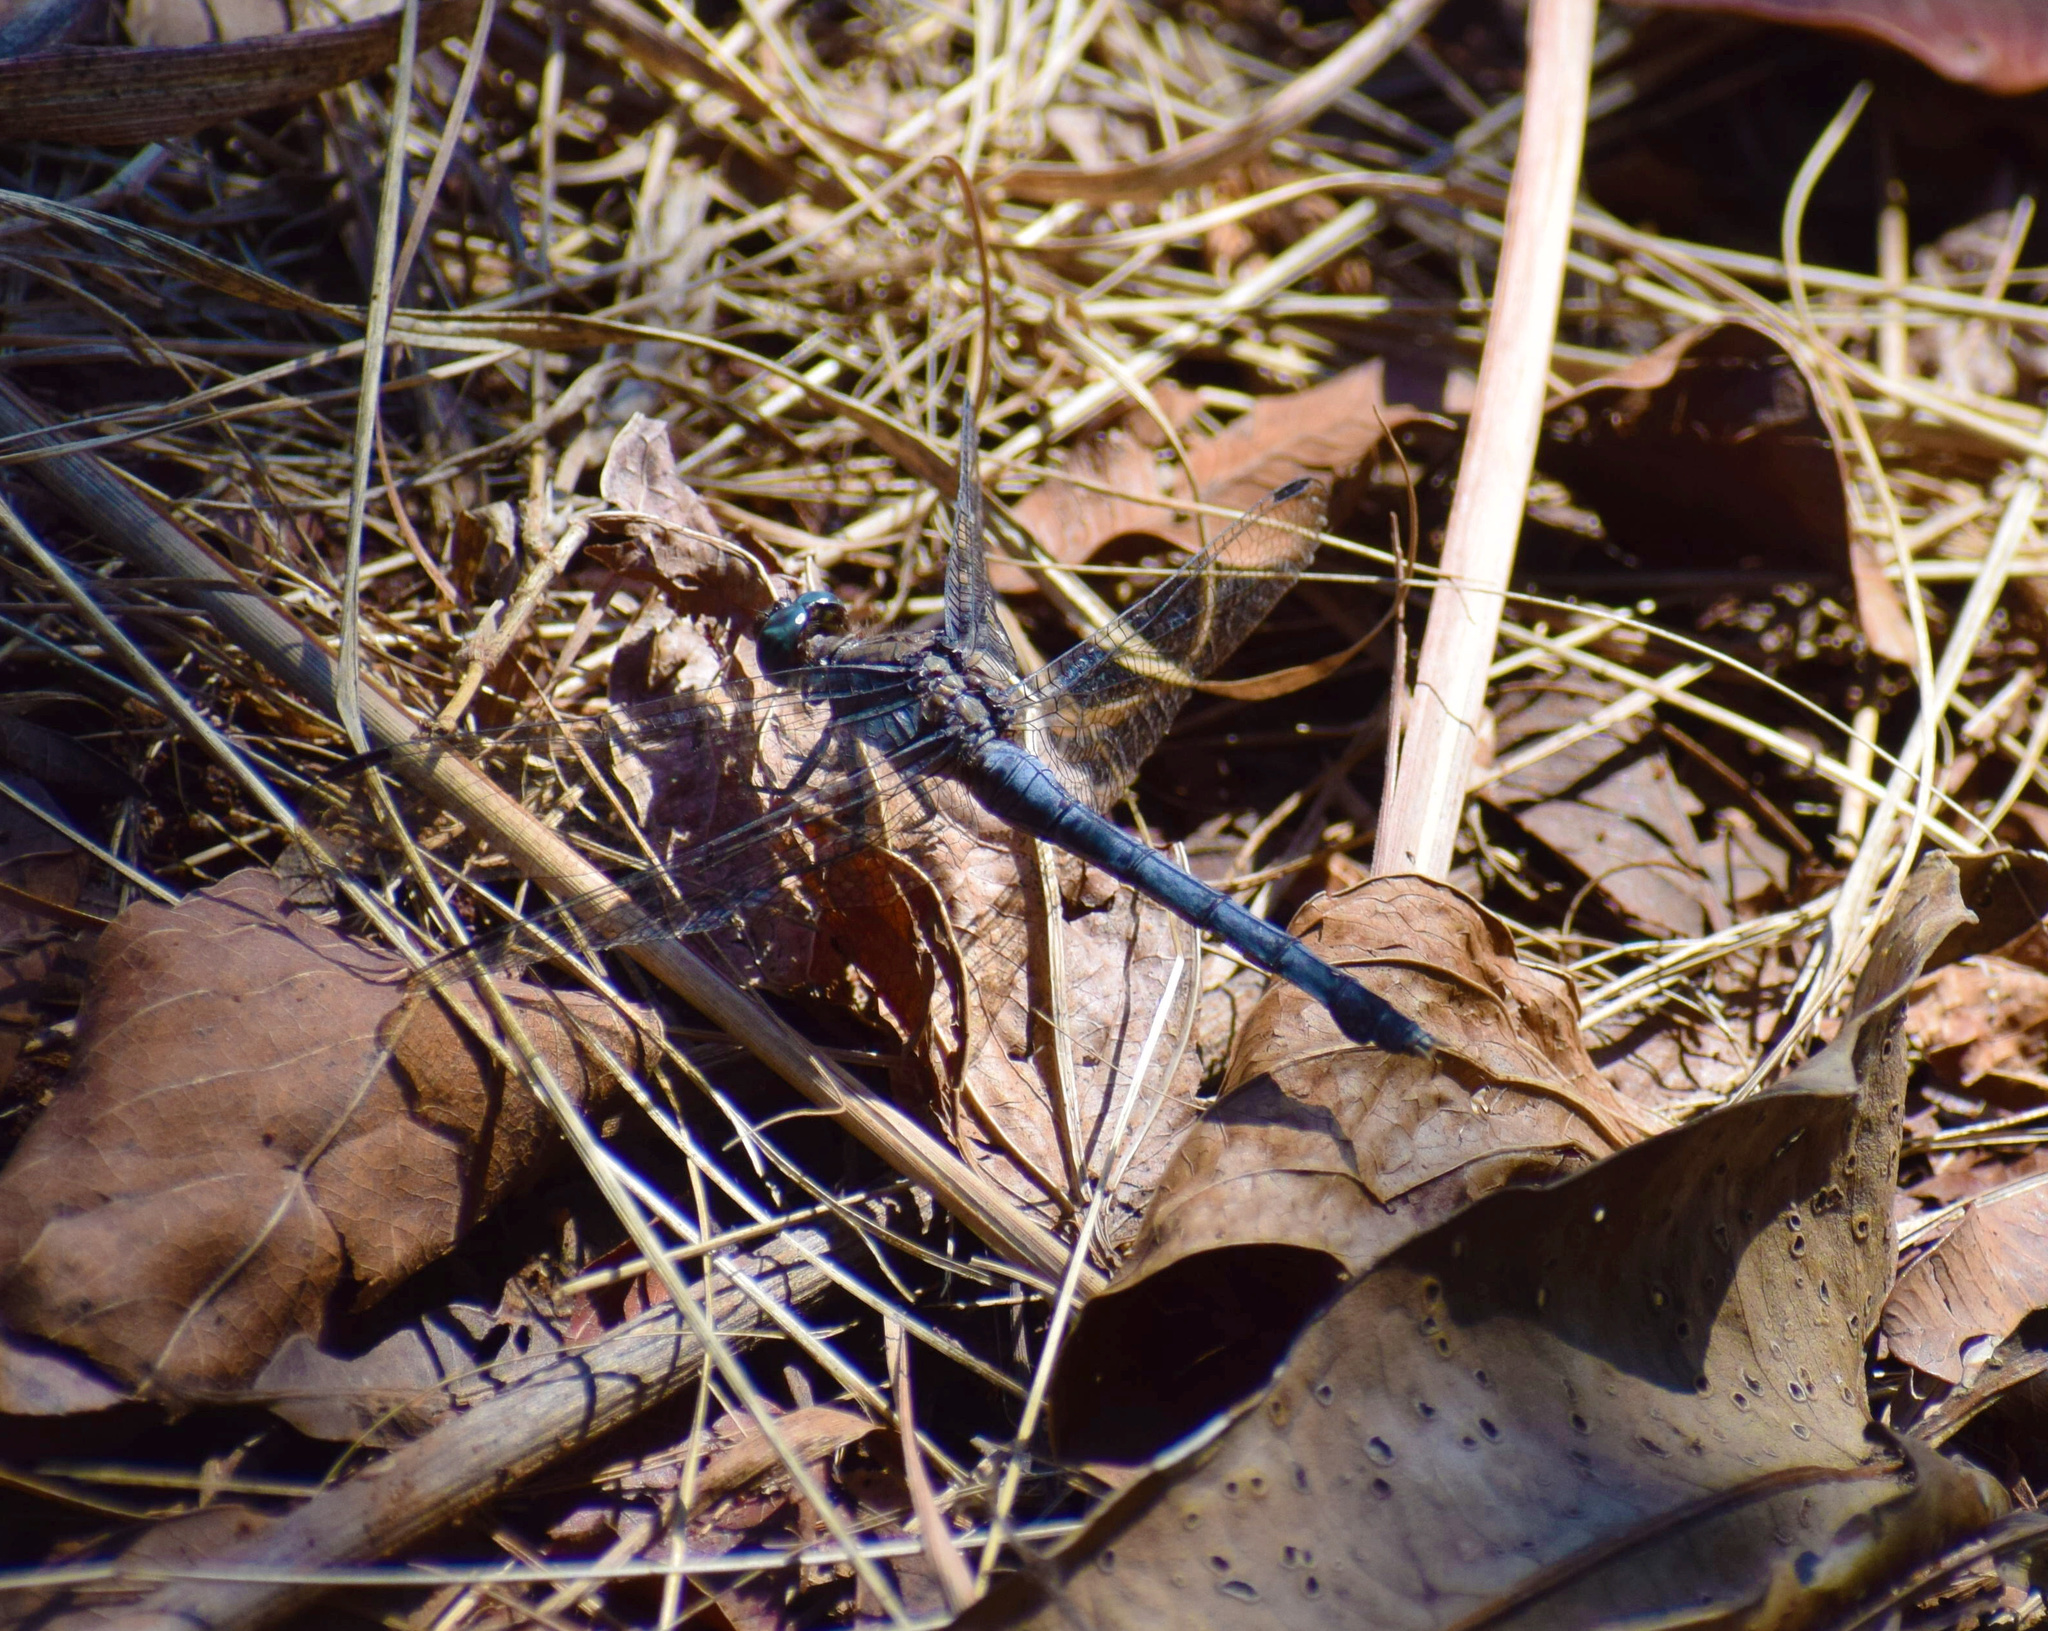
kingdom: Animalia
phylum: Arthropoda
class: Insecta
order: Odonata
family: Libellulidae
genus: Orthetrum
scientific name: Orthetrum julia
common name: Julia skimmer
